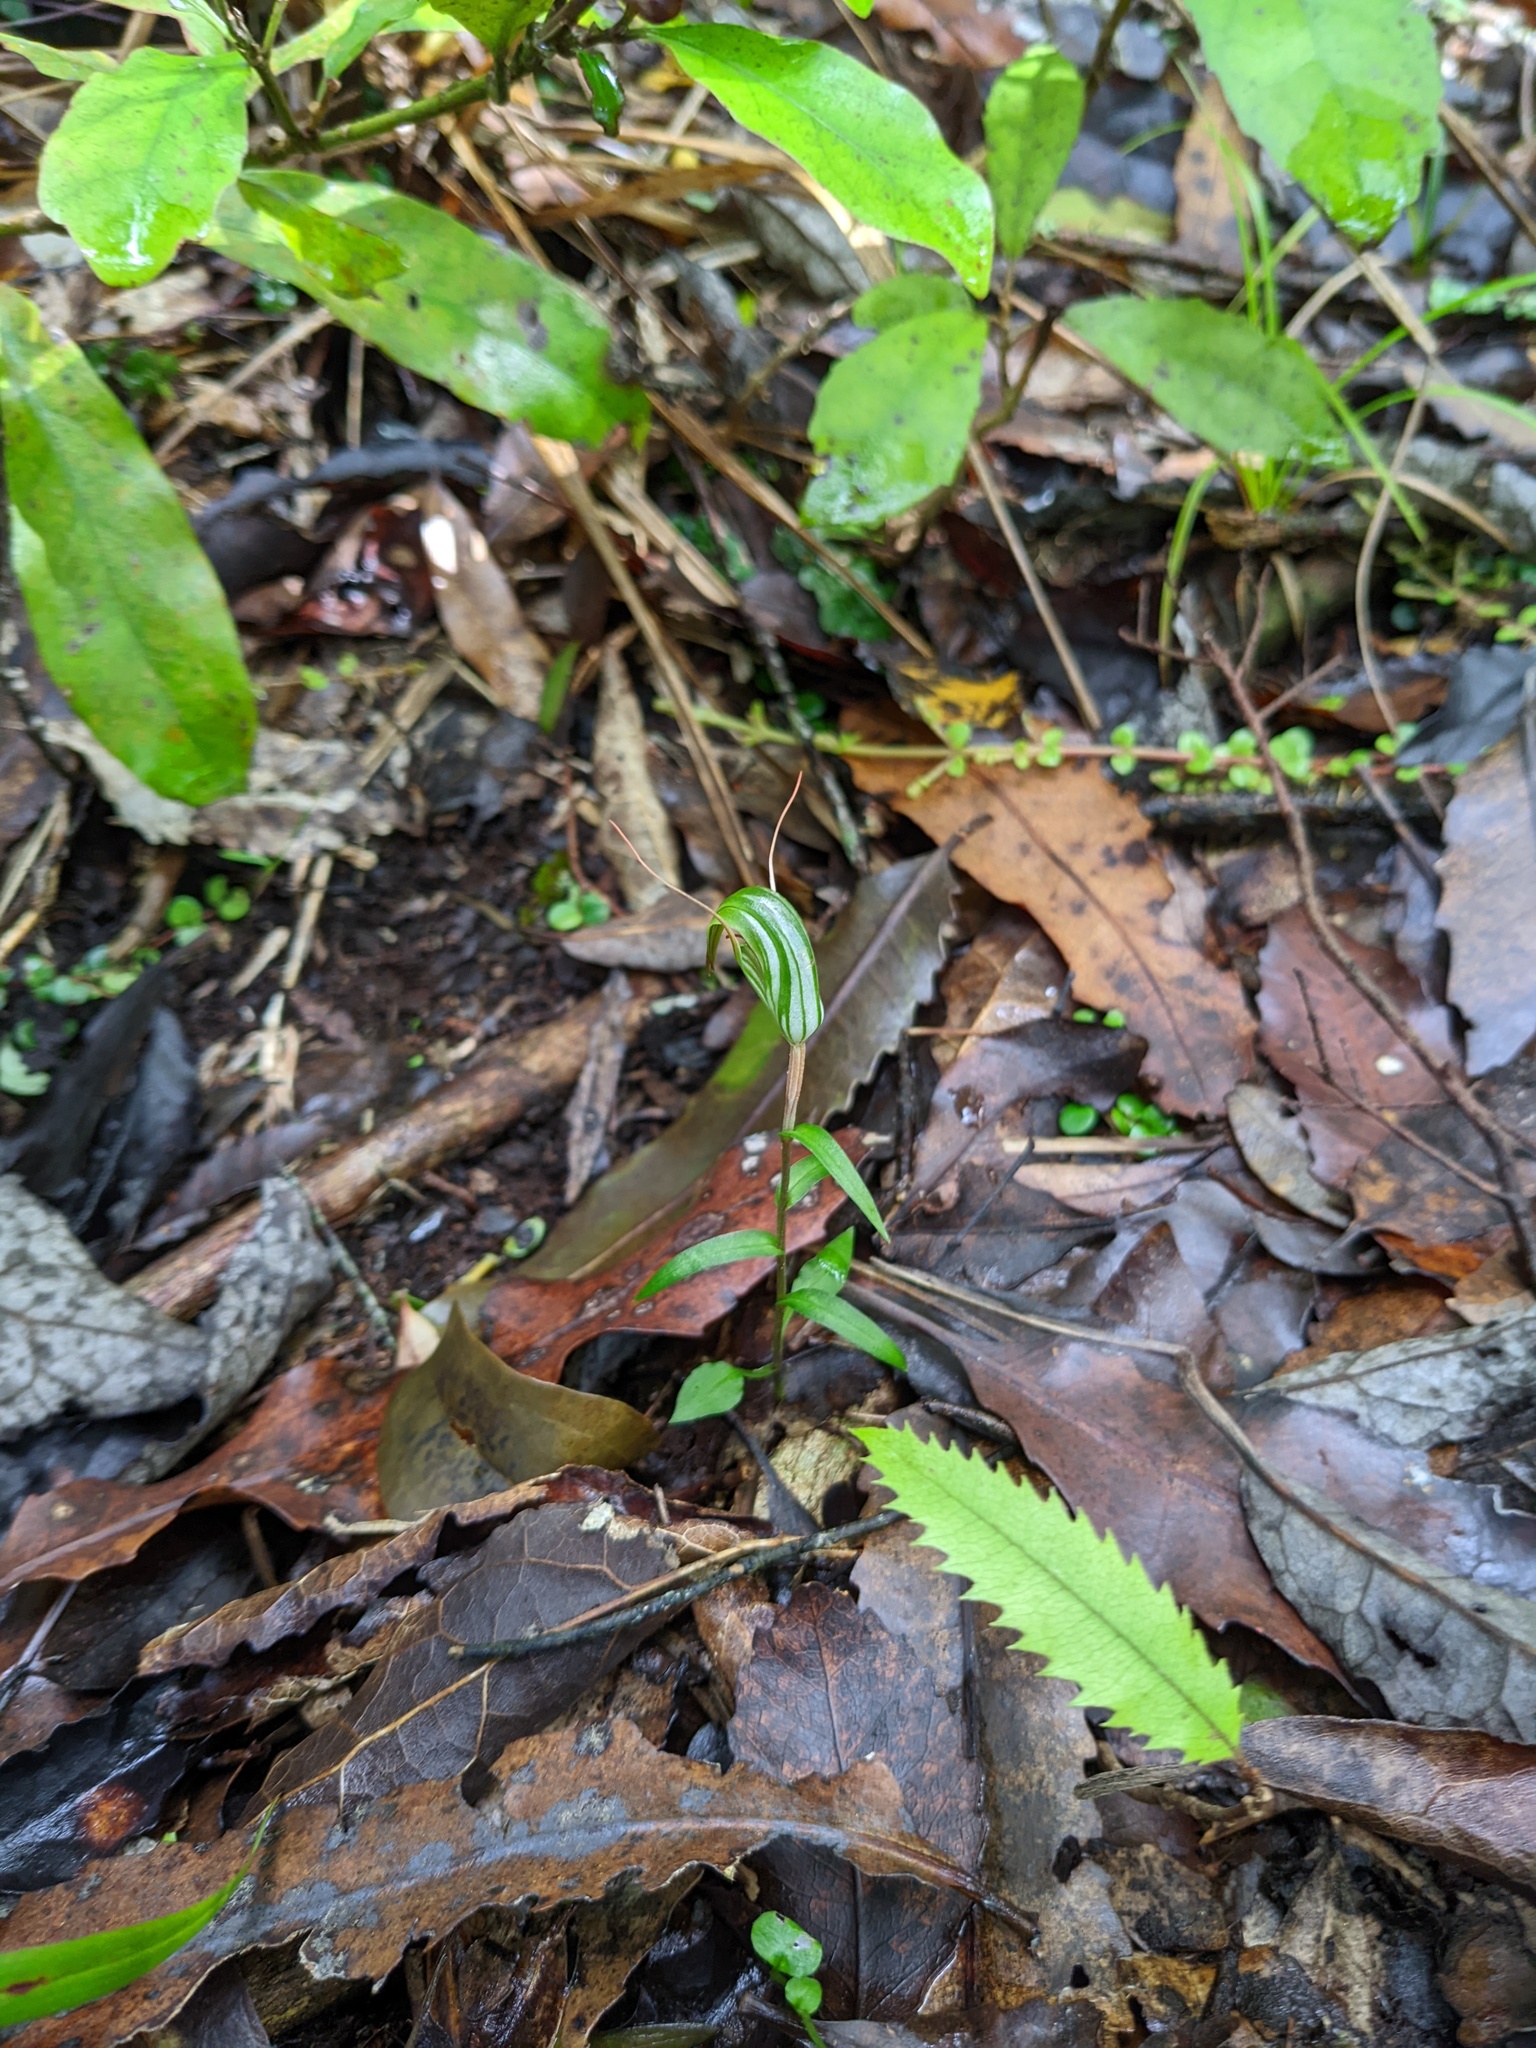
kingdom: Plantae
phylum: Tracheophyta
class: Liliopsida
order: Asparagales
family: Orchidaceae
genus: Pterostylis
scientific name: Pterostylis alobula
